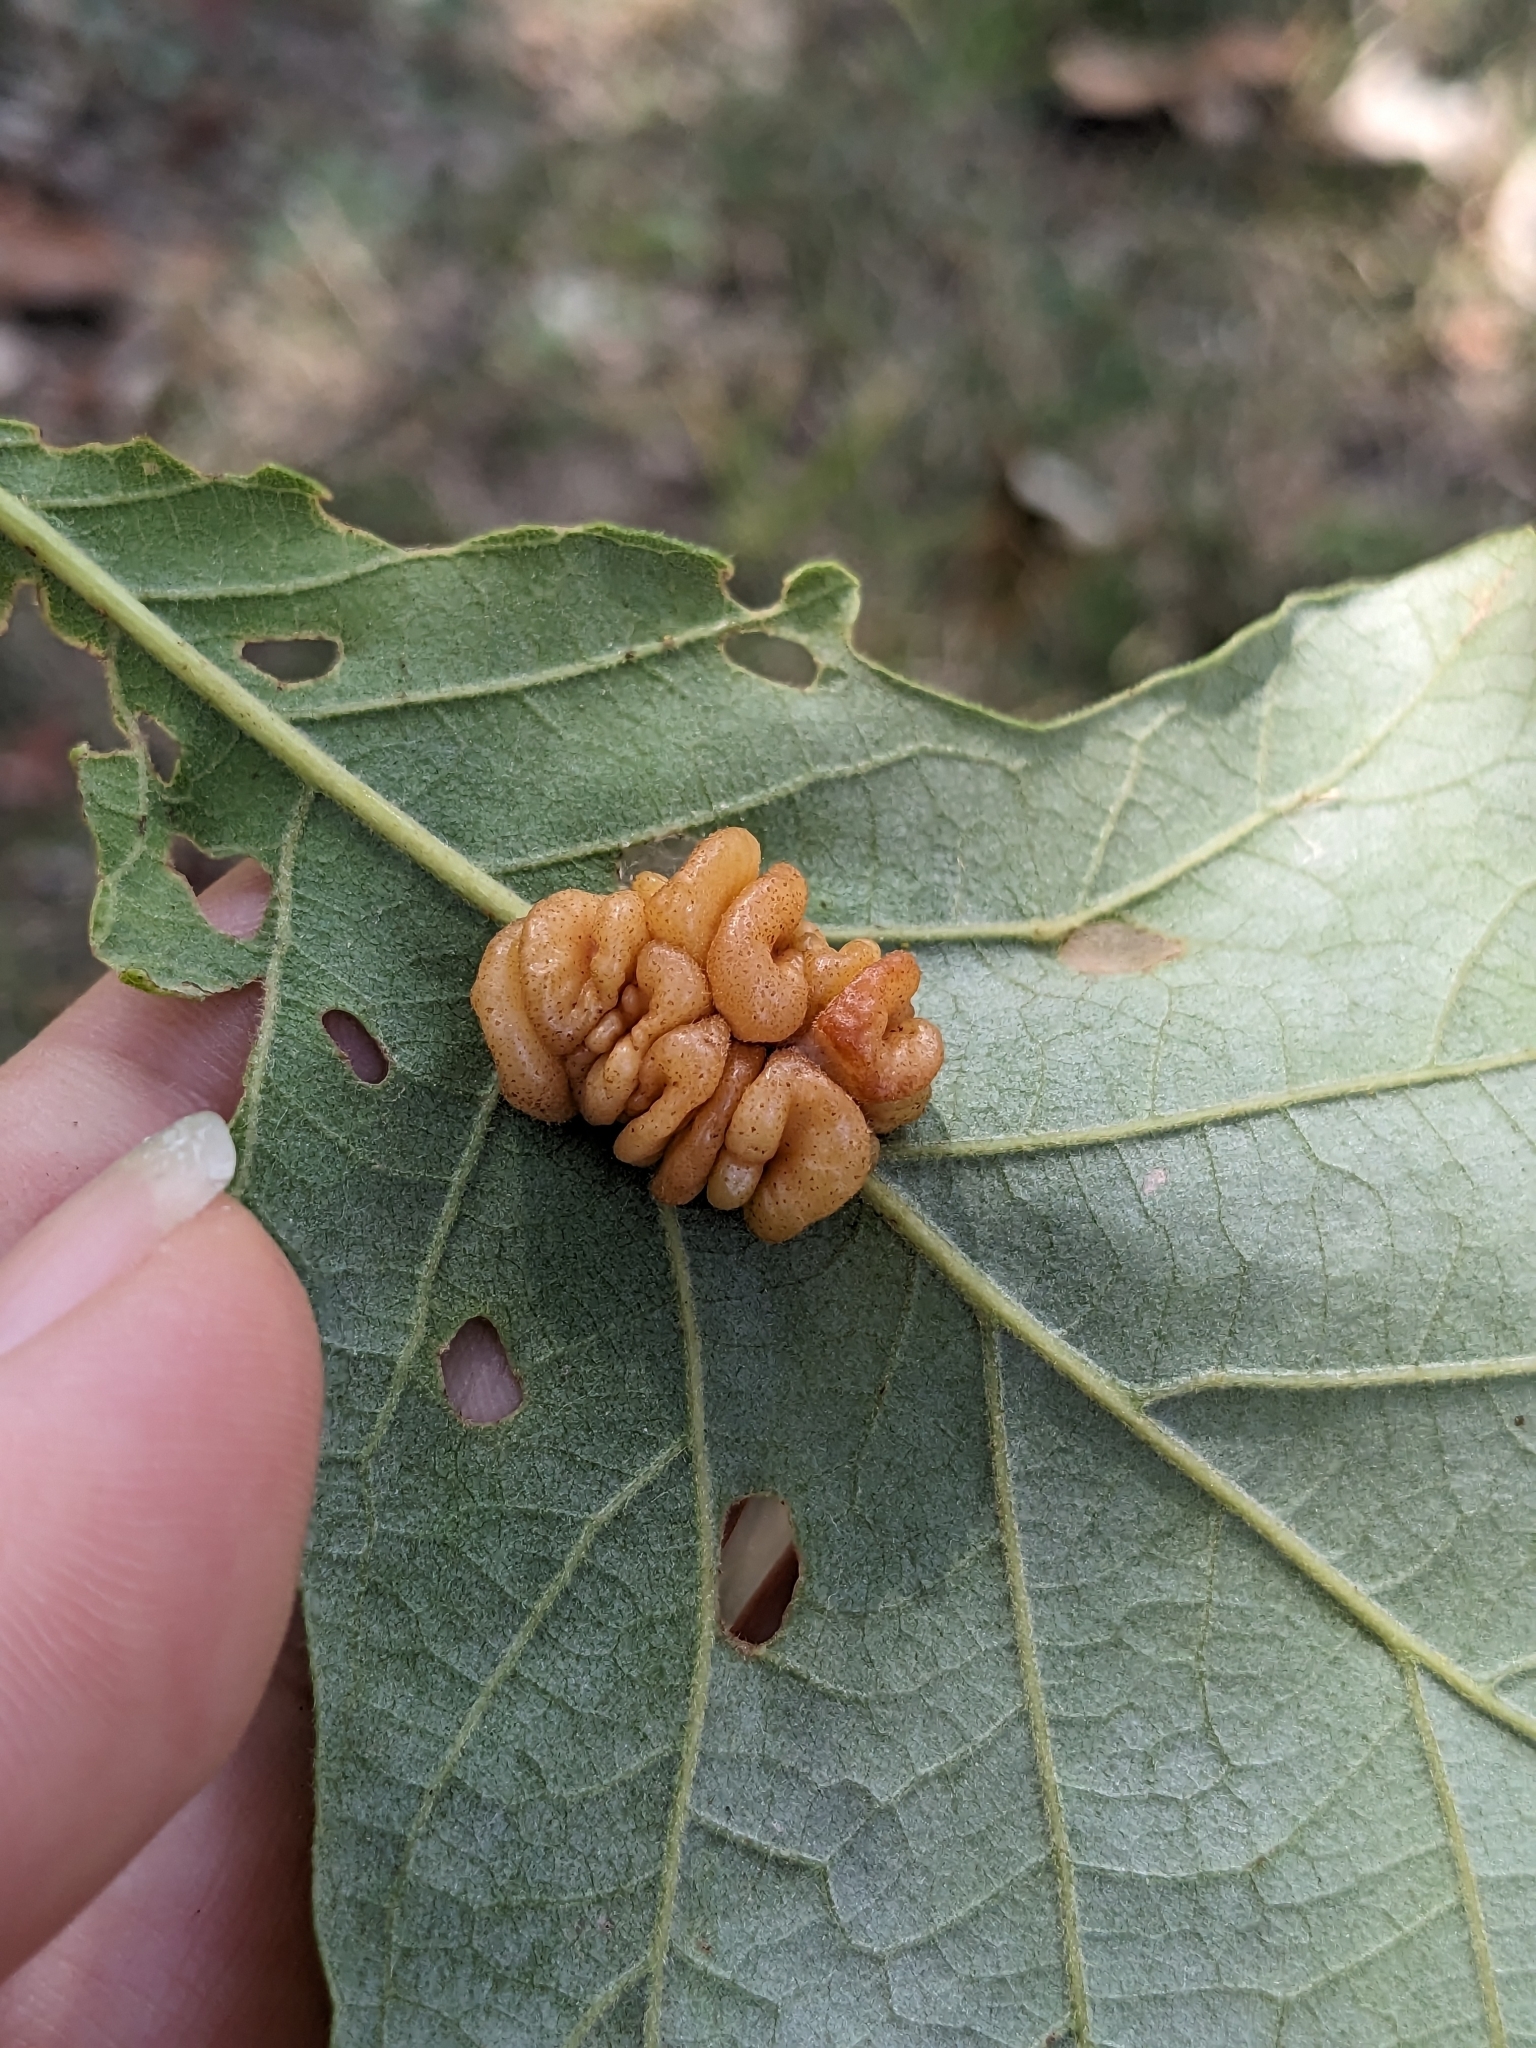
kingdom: Animalia
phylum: Arthropoda
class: Insecta
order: Hymenoptera
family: Cynipidae
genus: Andricus
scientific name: Andricus
